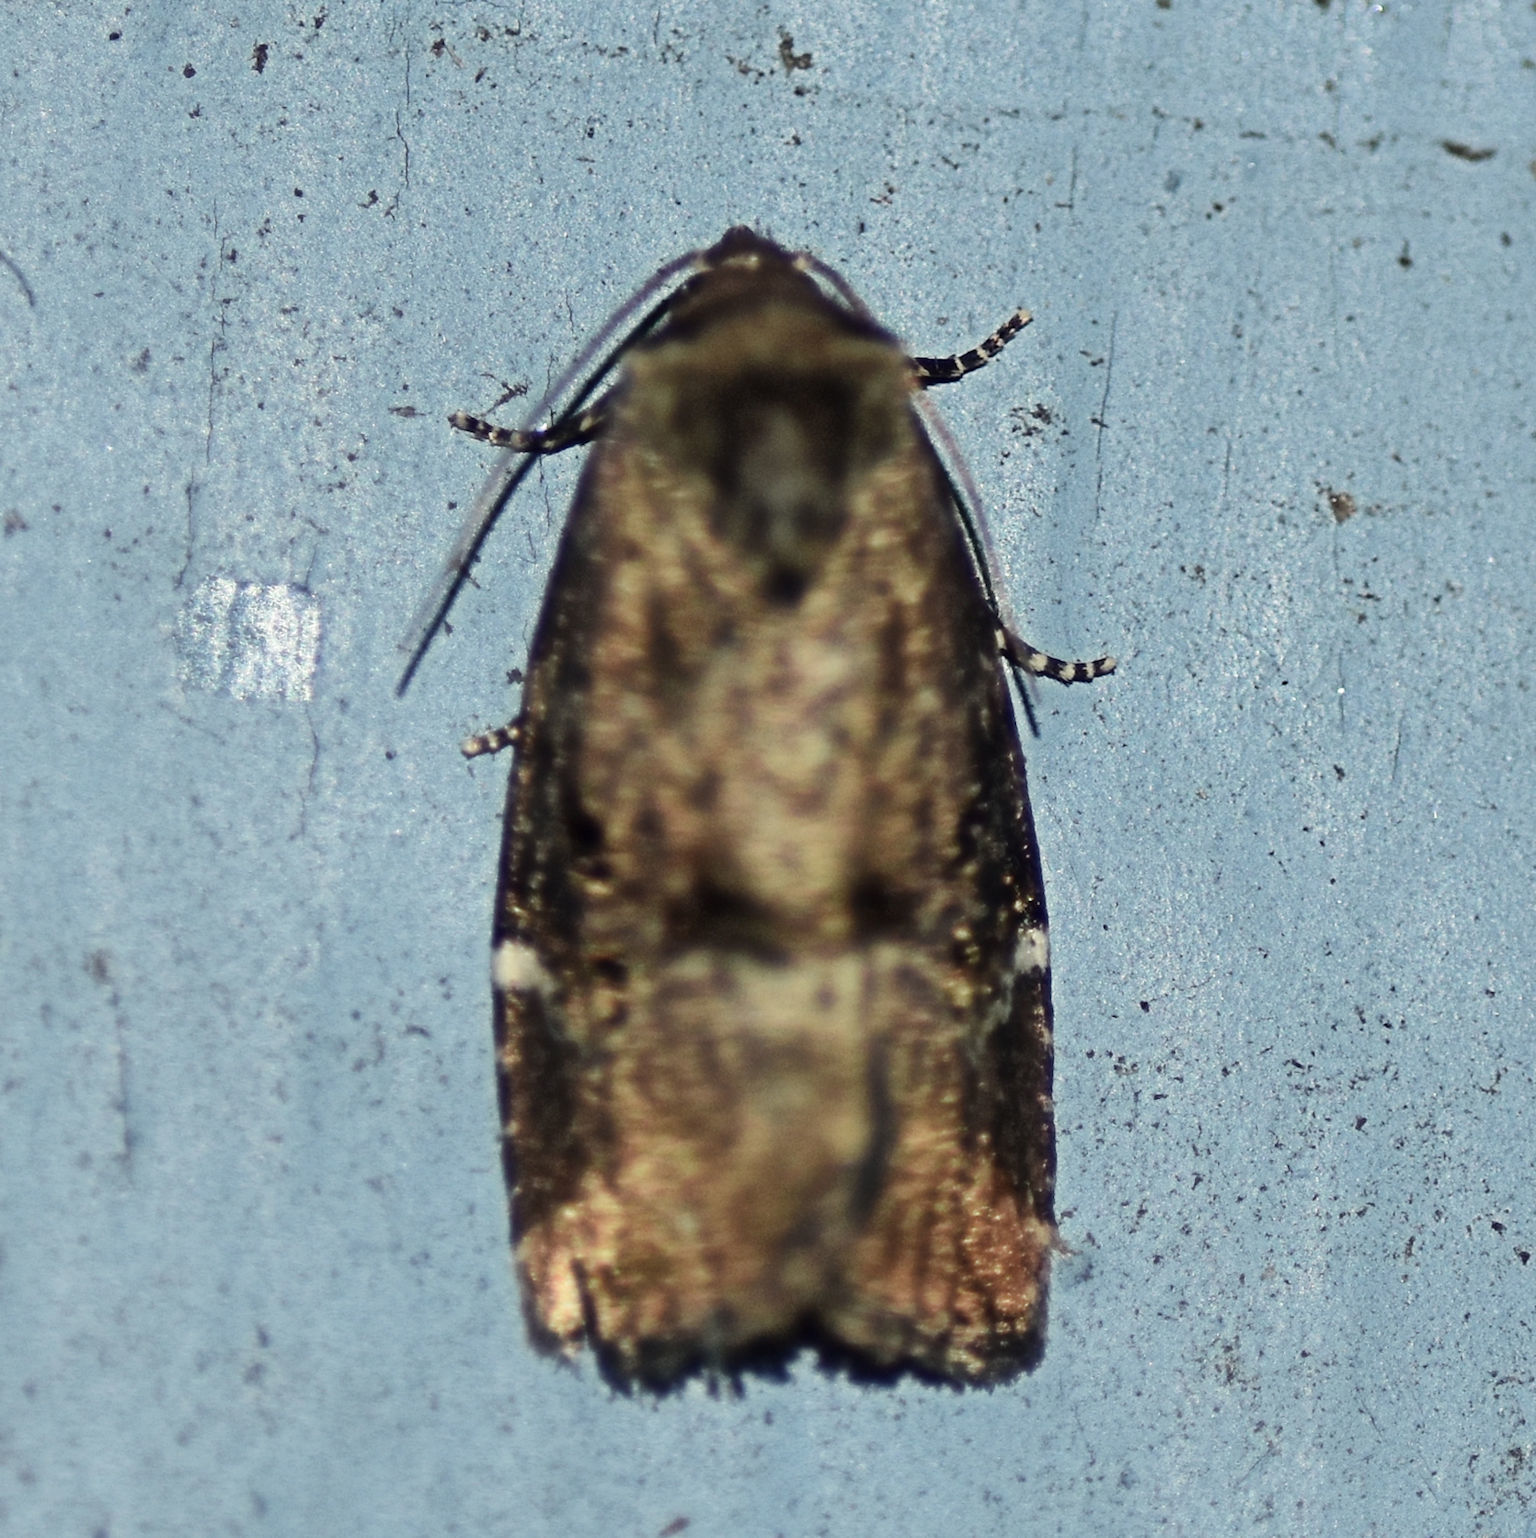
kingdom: Animalia
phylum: Arthropoda
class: Insecta
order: Lepidoptera
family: Noctuidae
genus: Elaphria
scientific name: Elaphria versicolor
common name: Fir harlequin
